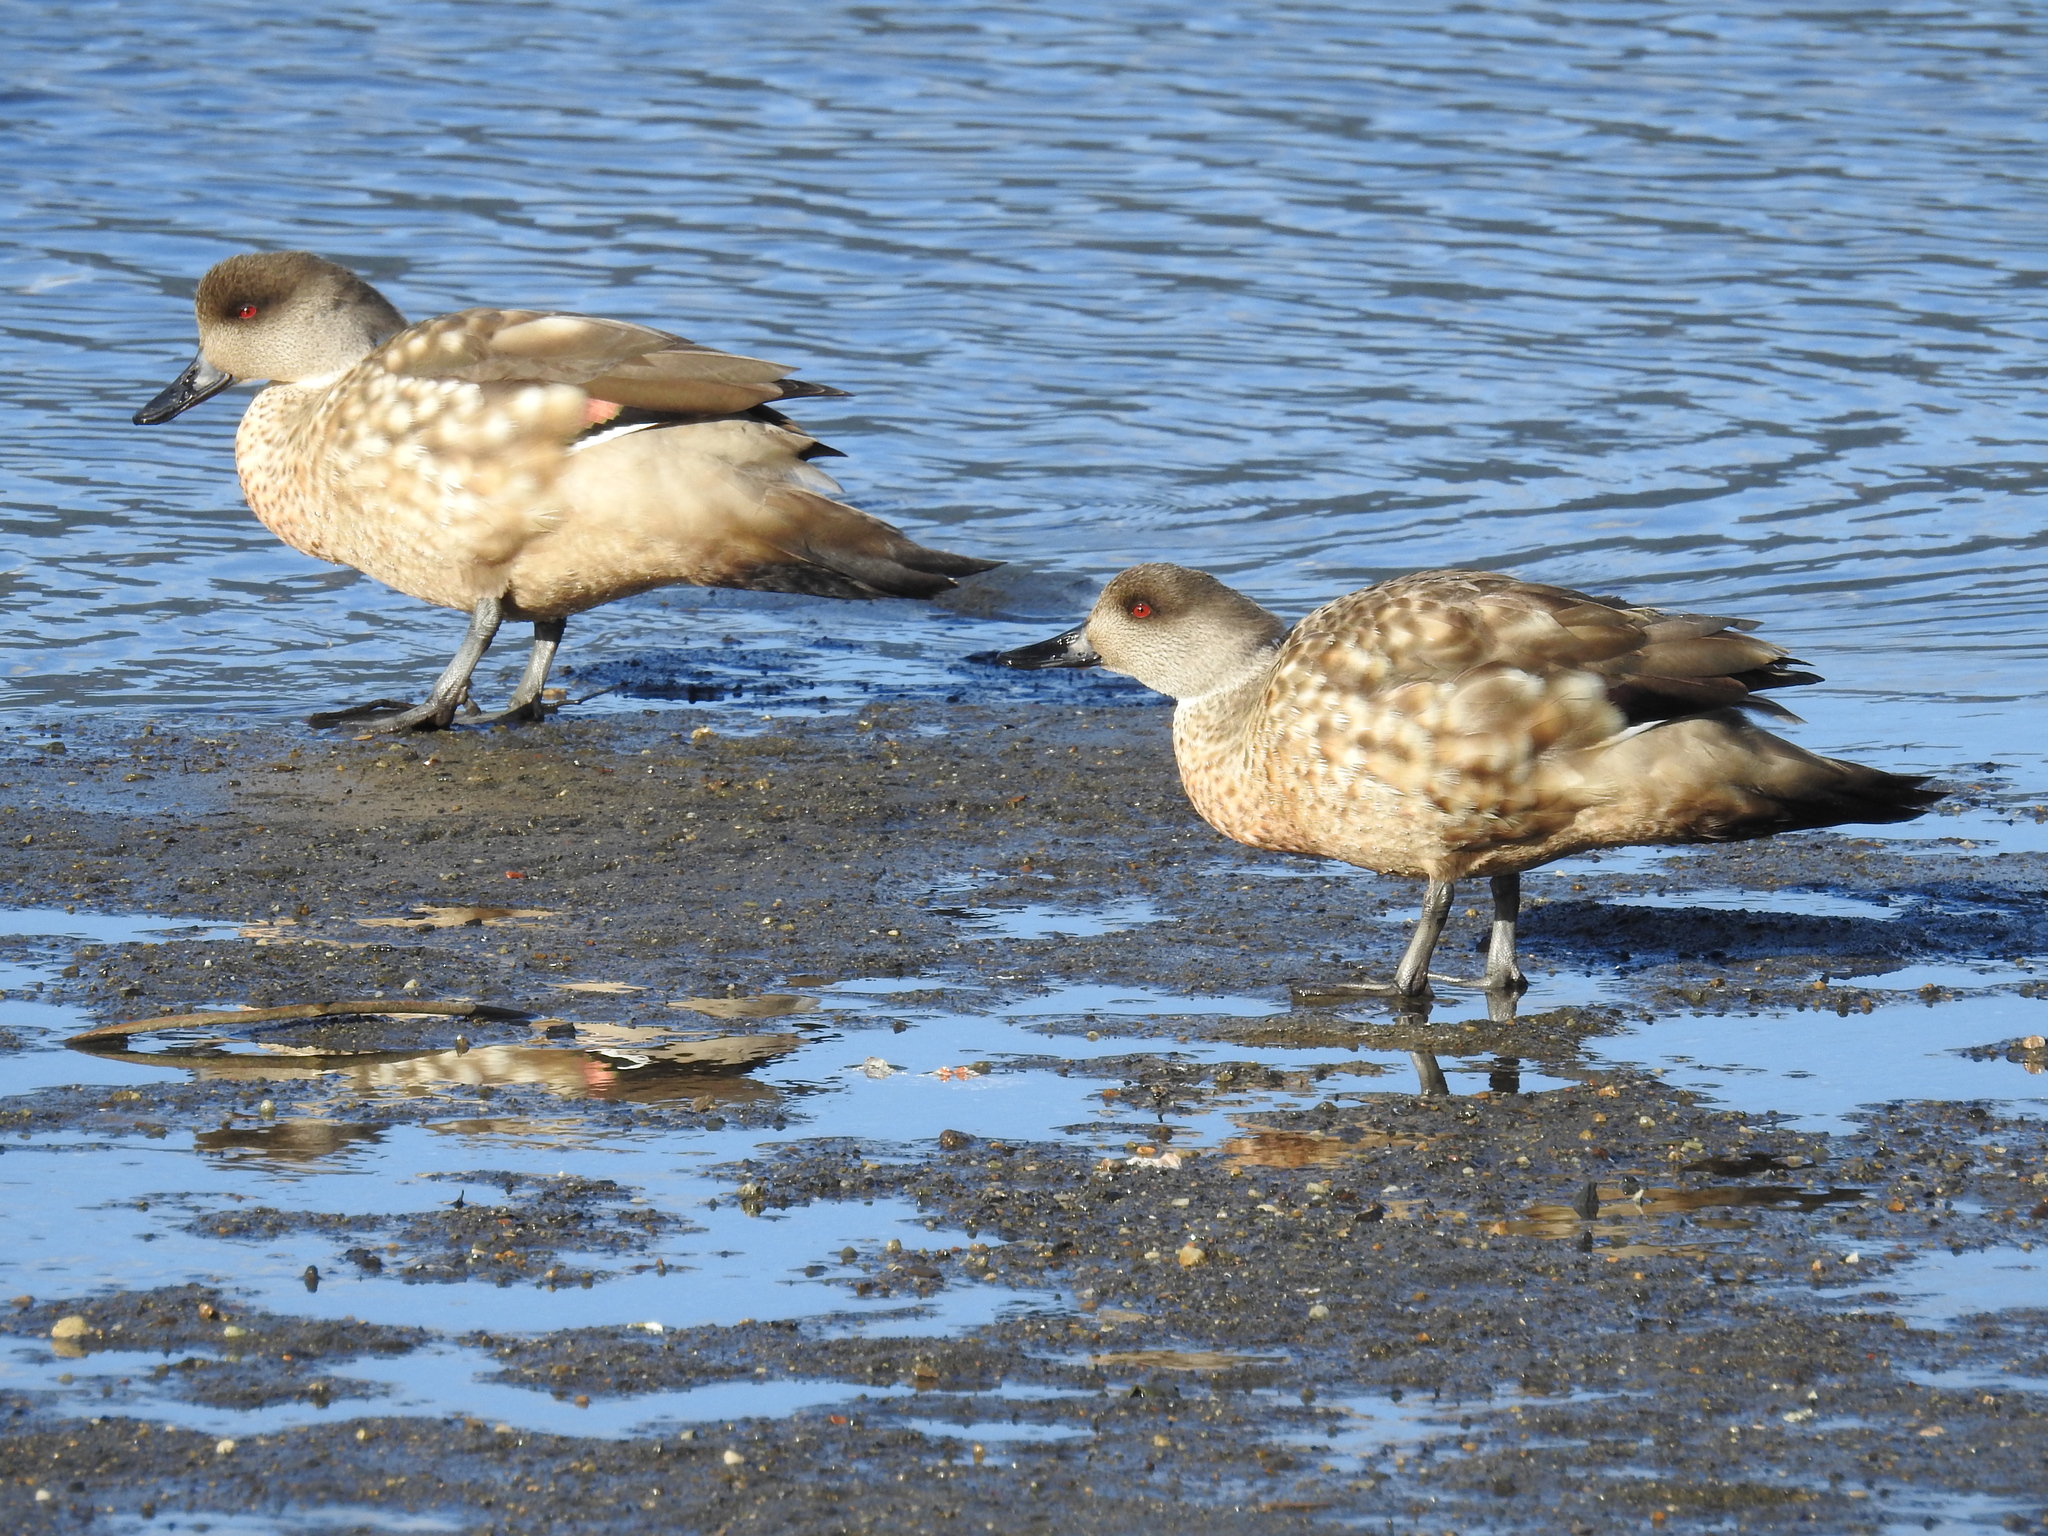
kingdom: Animalia
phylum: Chordata
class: Aves
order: Anseriformes
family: Anatidae
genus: Lophonetta
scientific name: Lophonetta specularioides
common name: Crested duck
